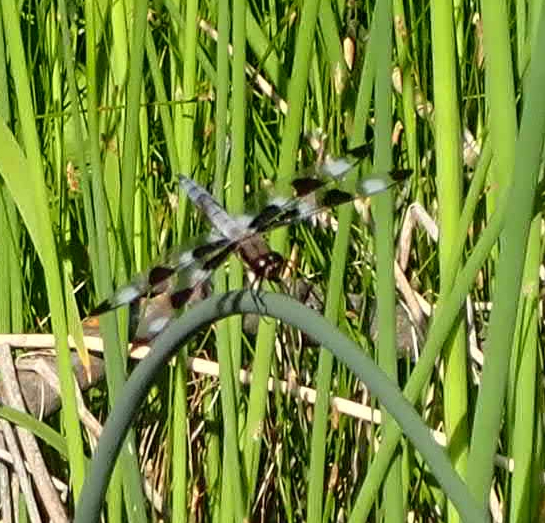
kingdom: Animalia
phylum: Arthropoda
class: Insecta
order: Odonata
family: Libellulidae
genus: Libellula
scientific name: Libellula pulchella
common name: Twelve-spotted skimmer
